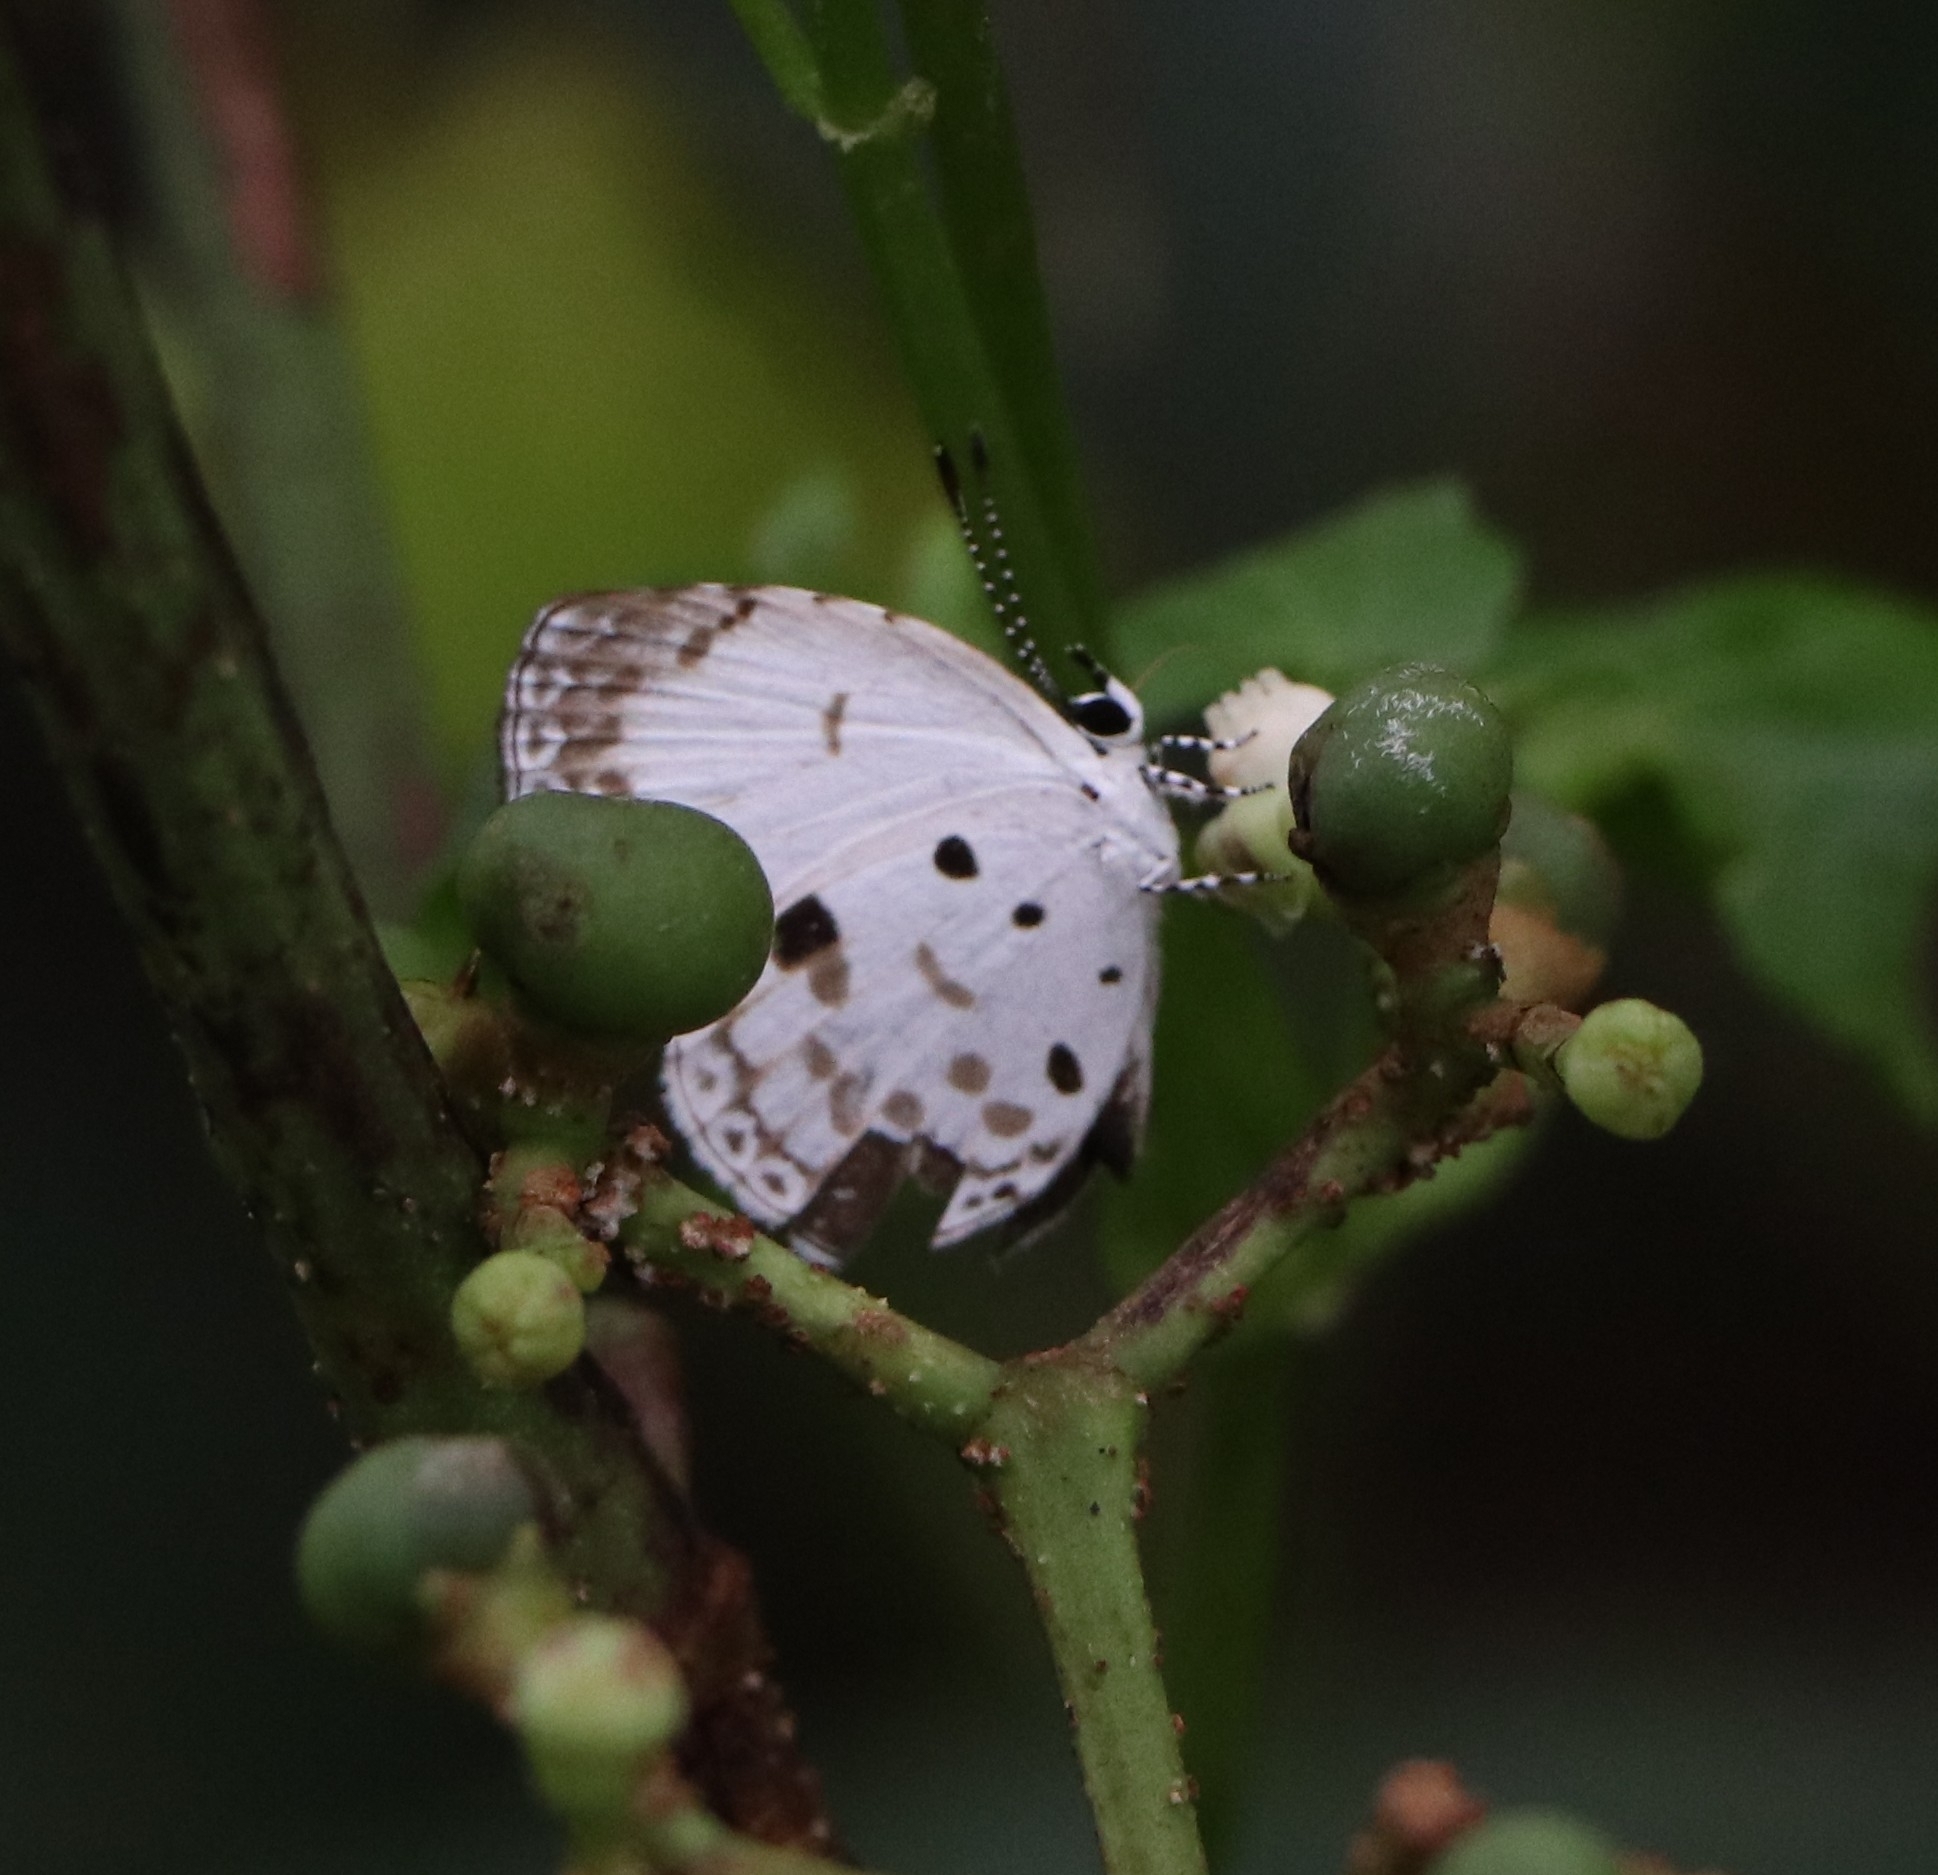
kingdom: Animalia
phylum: Arthropoda
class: Insecta
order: Lepidoptera
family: Lycaenidae
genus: Neopithecops
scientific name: Neopithecops zalmora
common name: Quaker
